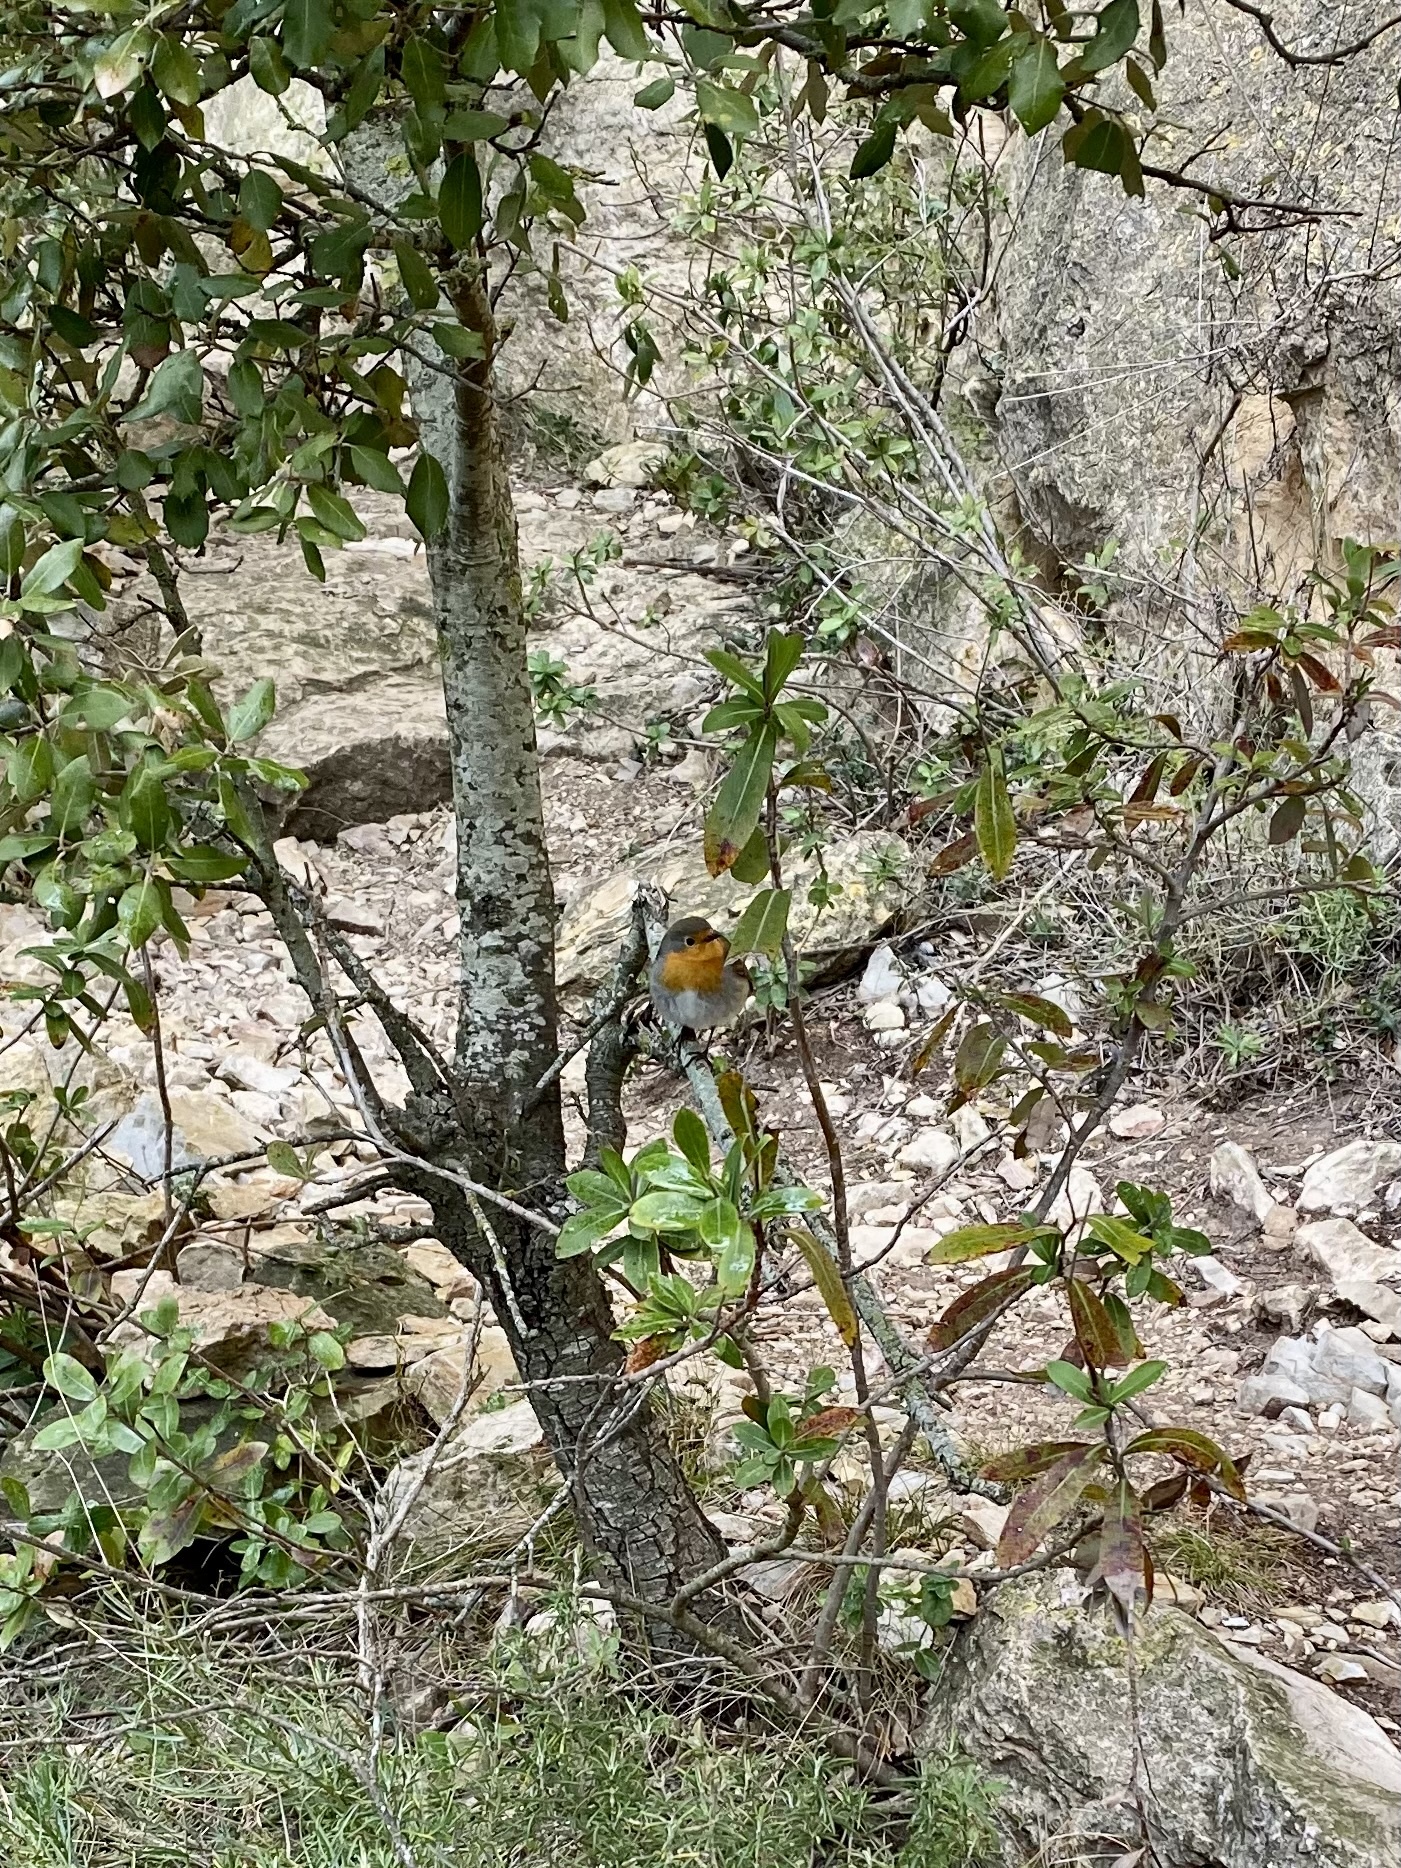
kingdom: Animalia
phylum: Chordata
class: Aves
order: Passeriformes
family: Muscicapidae
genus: Erithacus
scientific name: Erithacus rubecula
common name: European robin
